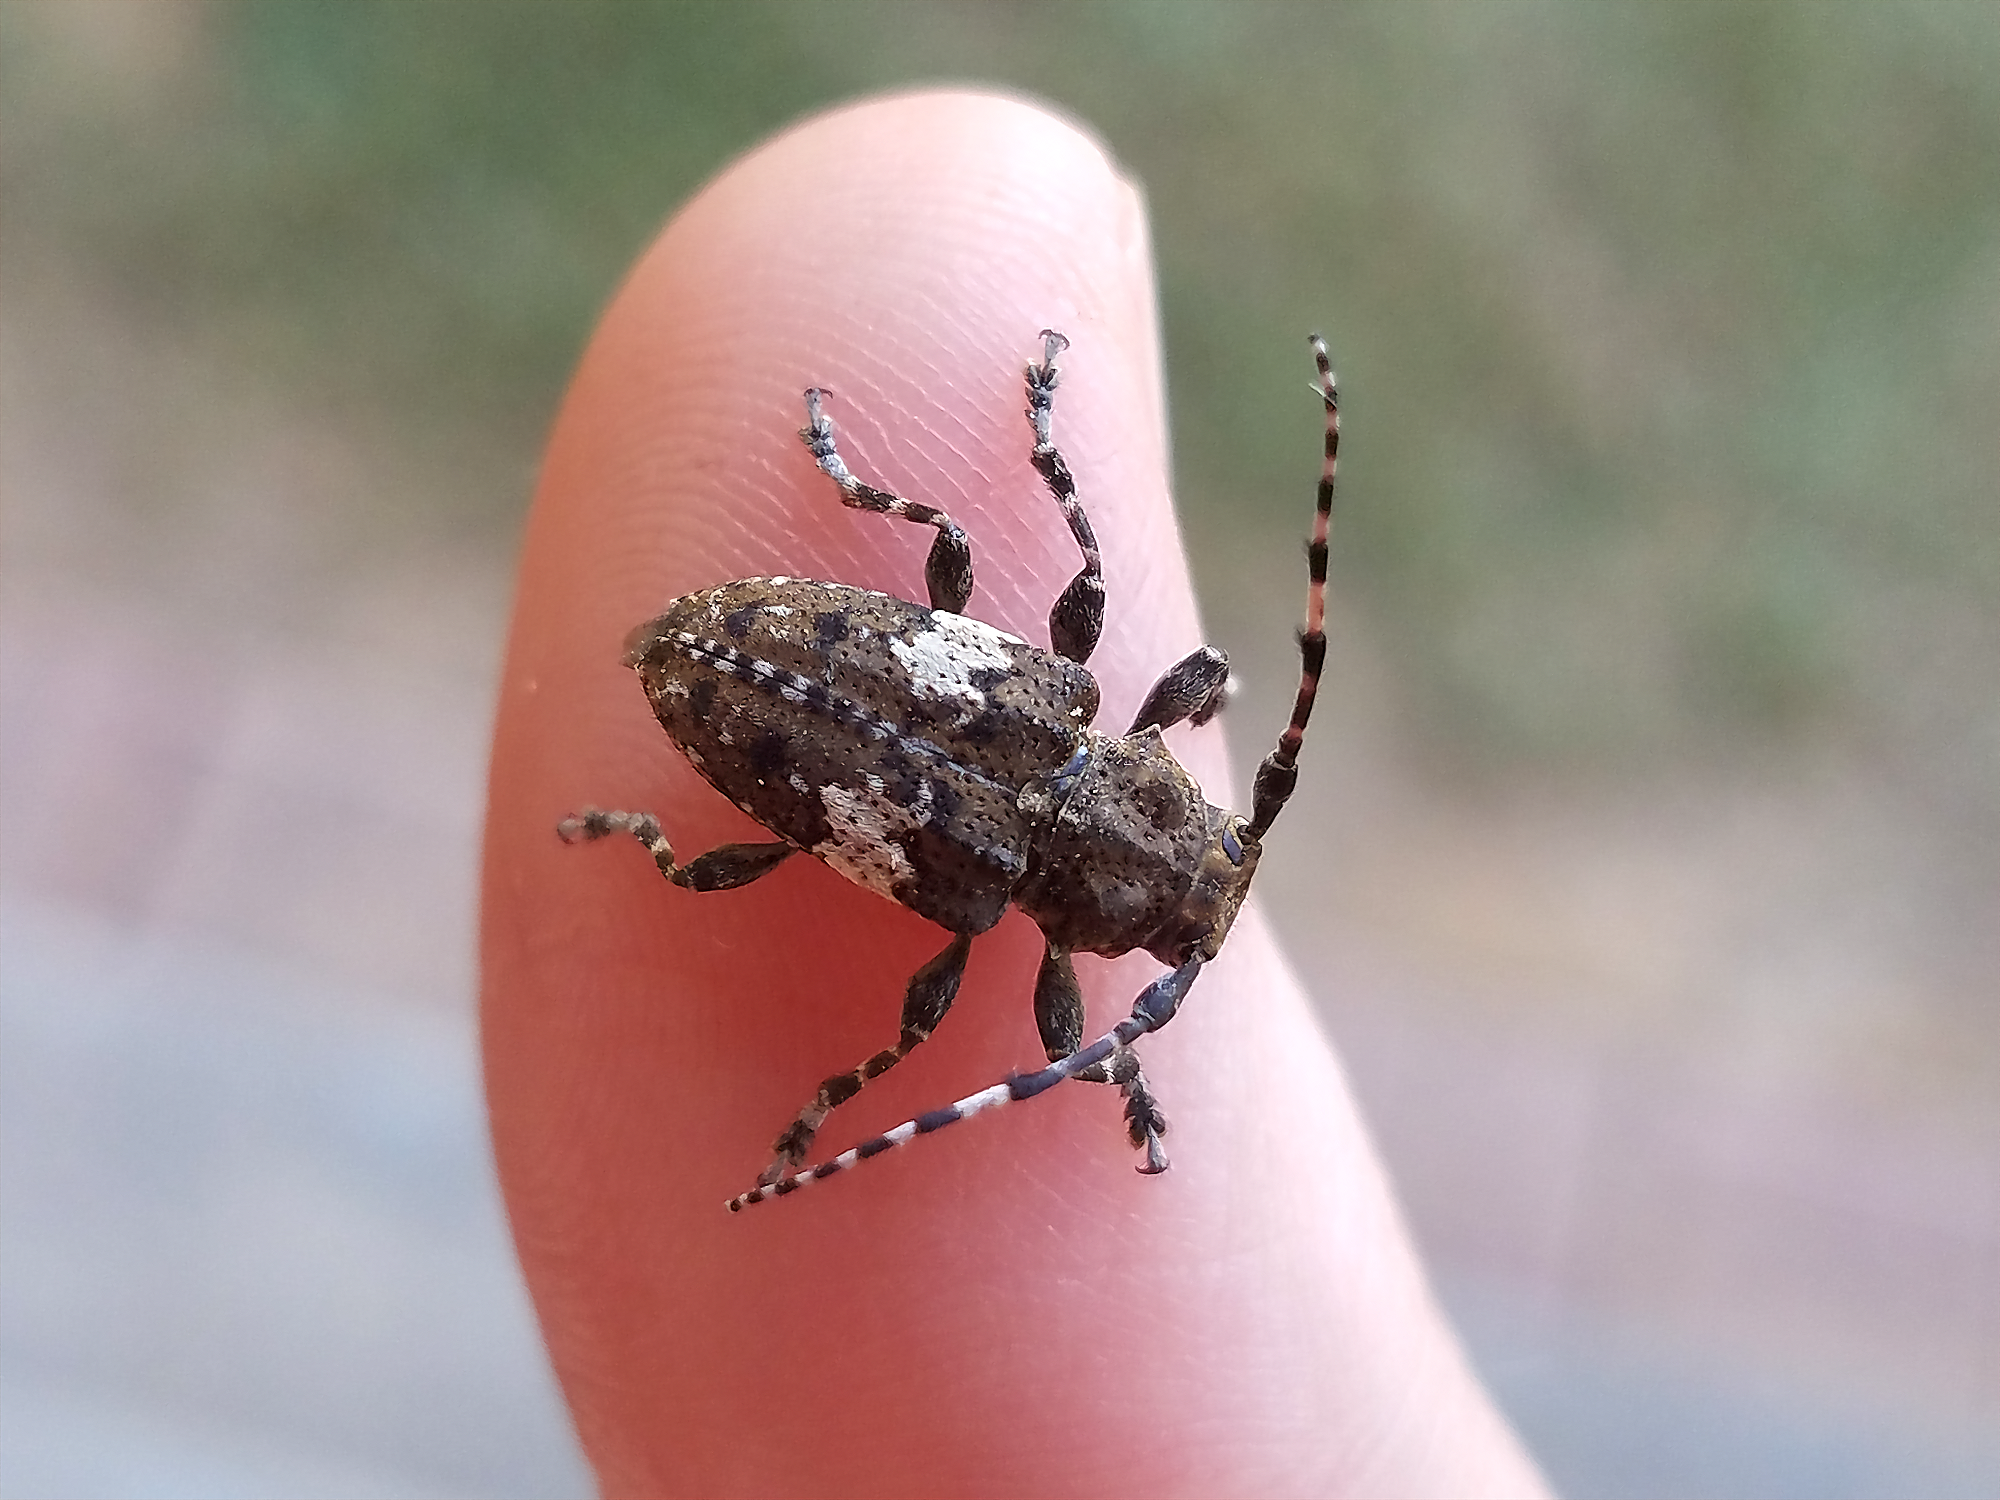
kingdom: Animalia
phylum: Arthropoda
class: Insecta
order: Coleoptera
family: Cerambycidae
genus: Acanthoderes
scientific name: Acanthoderes quadrigibba
